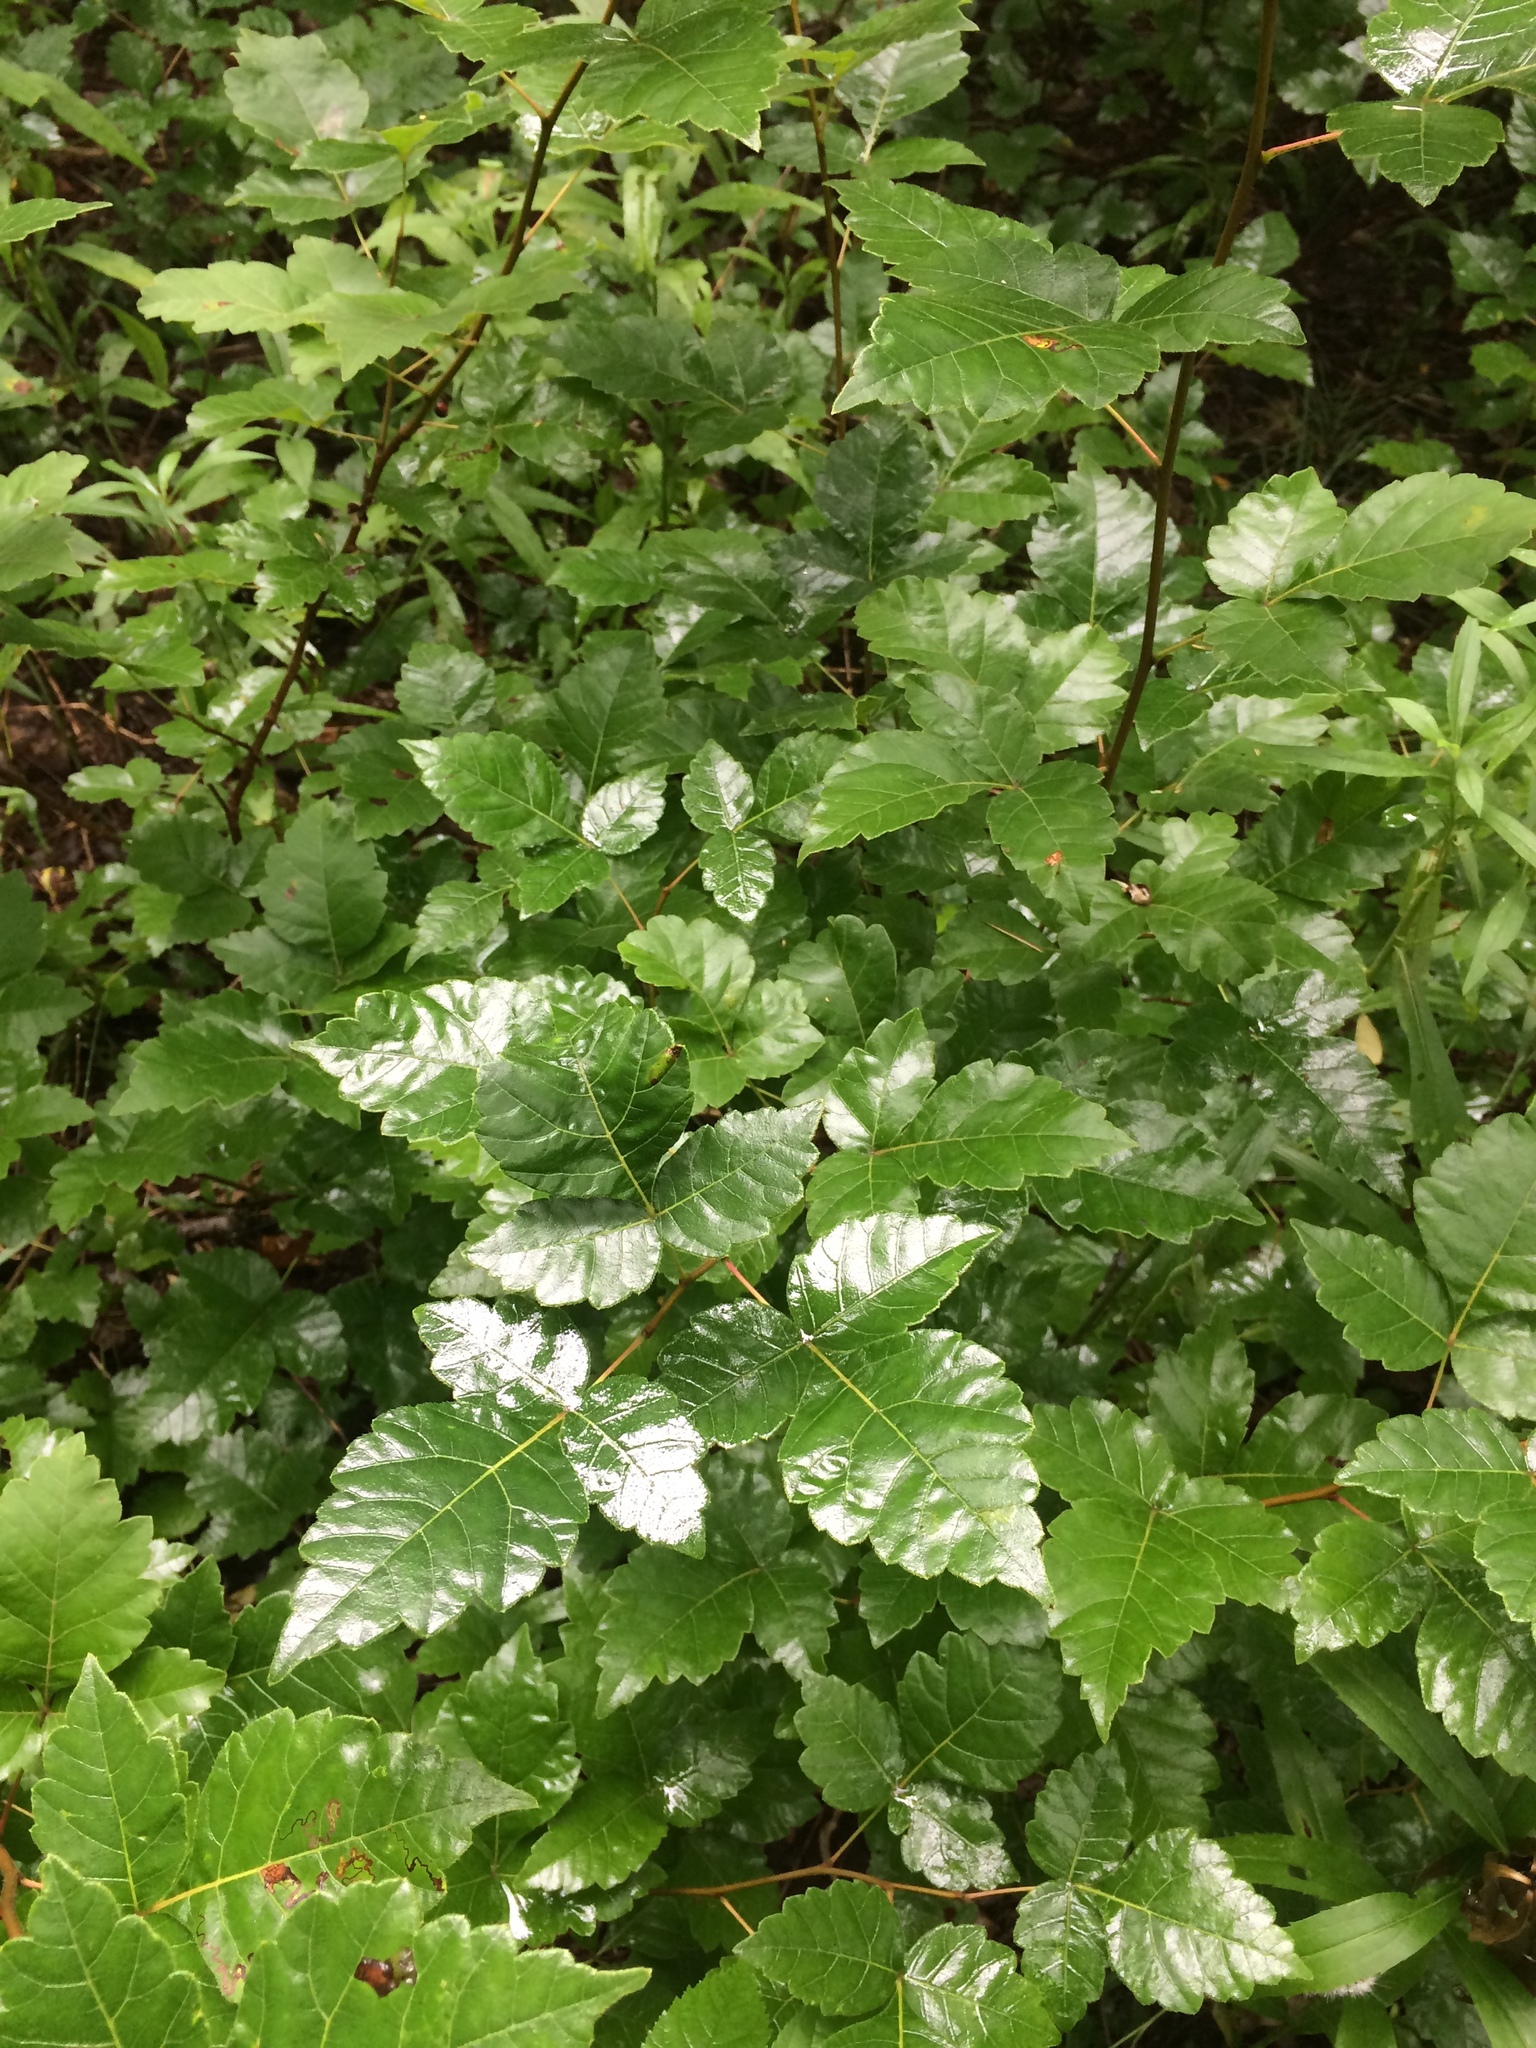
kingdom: Plantae
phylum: Tracheophyta
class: Magnoliopsida
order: Sapindales
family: Anacardiaceae
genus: Rhus
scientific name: Rhus aromatica
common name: Aromatic sumac
